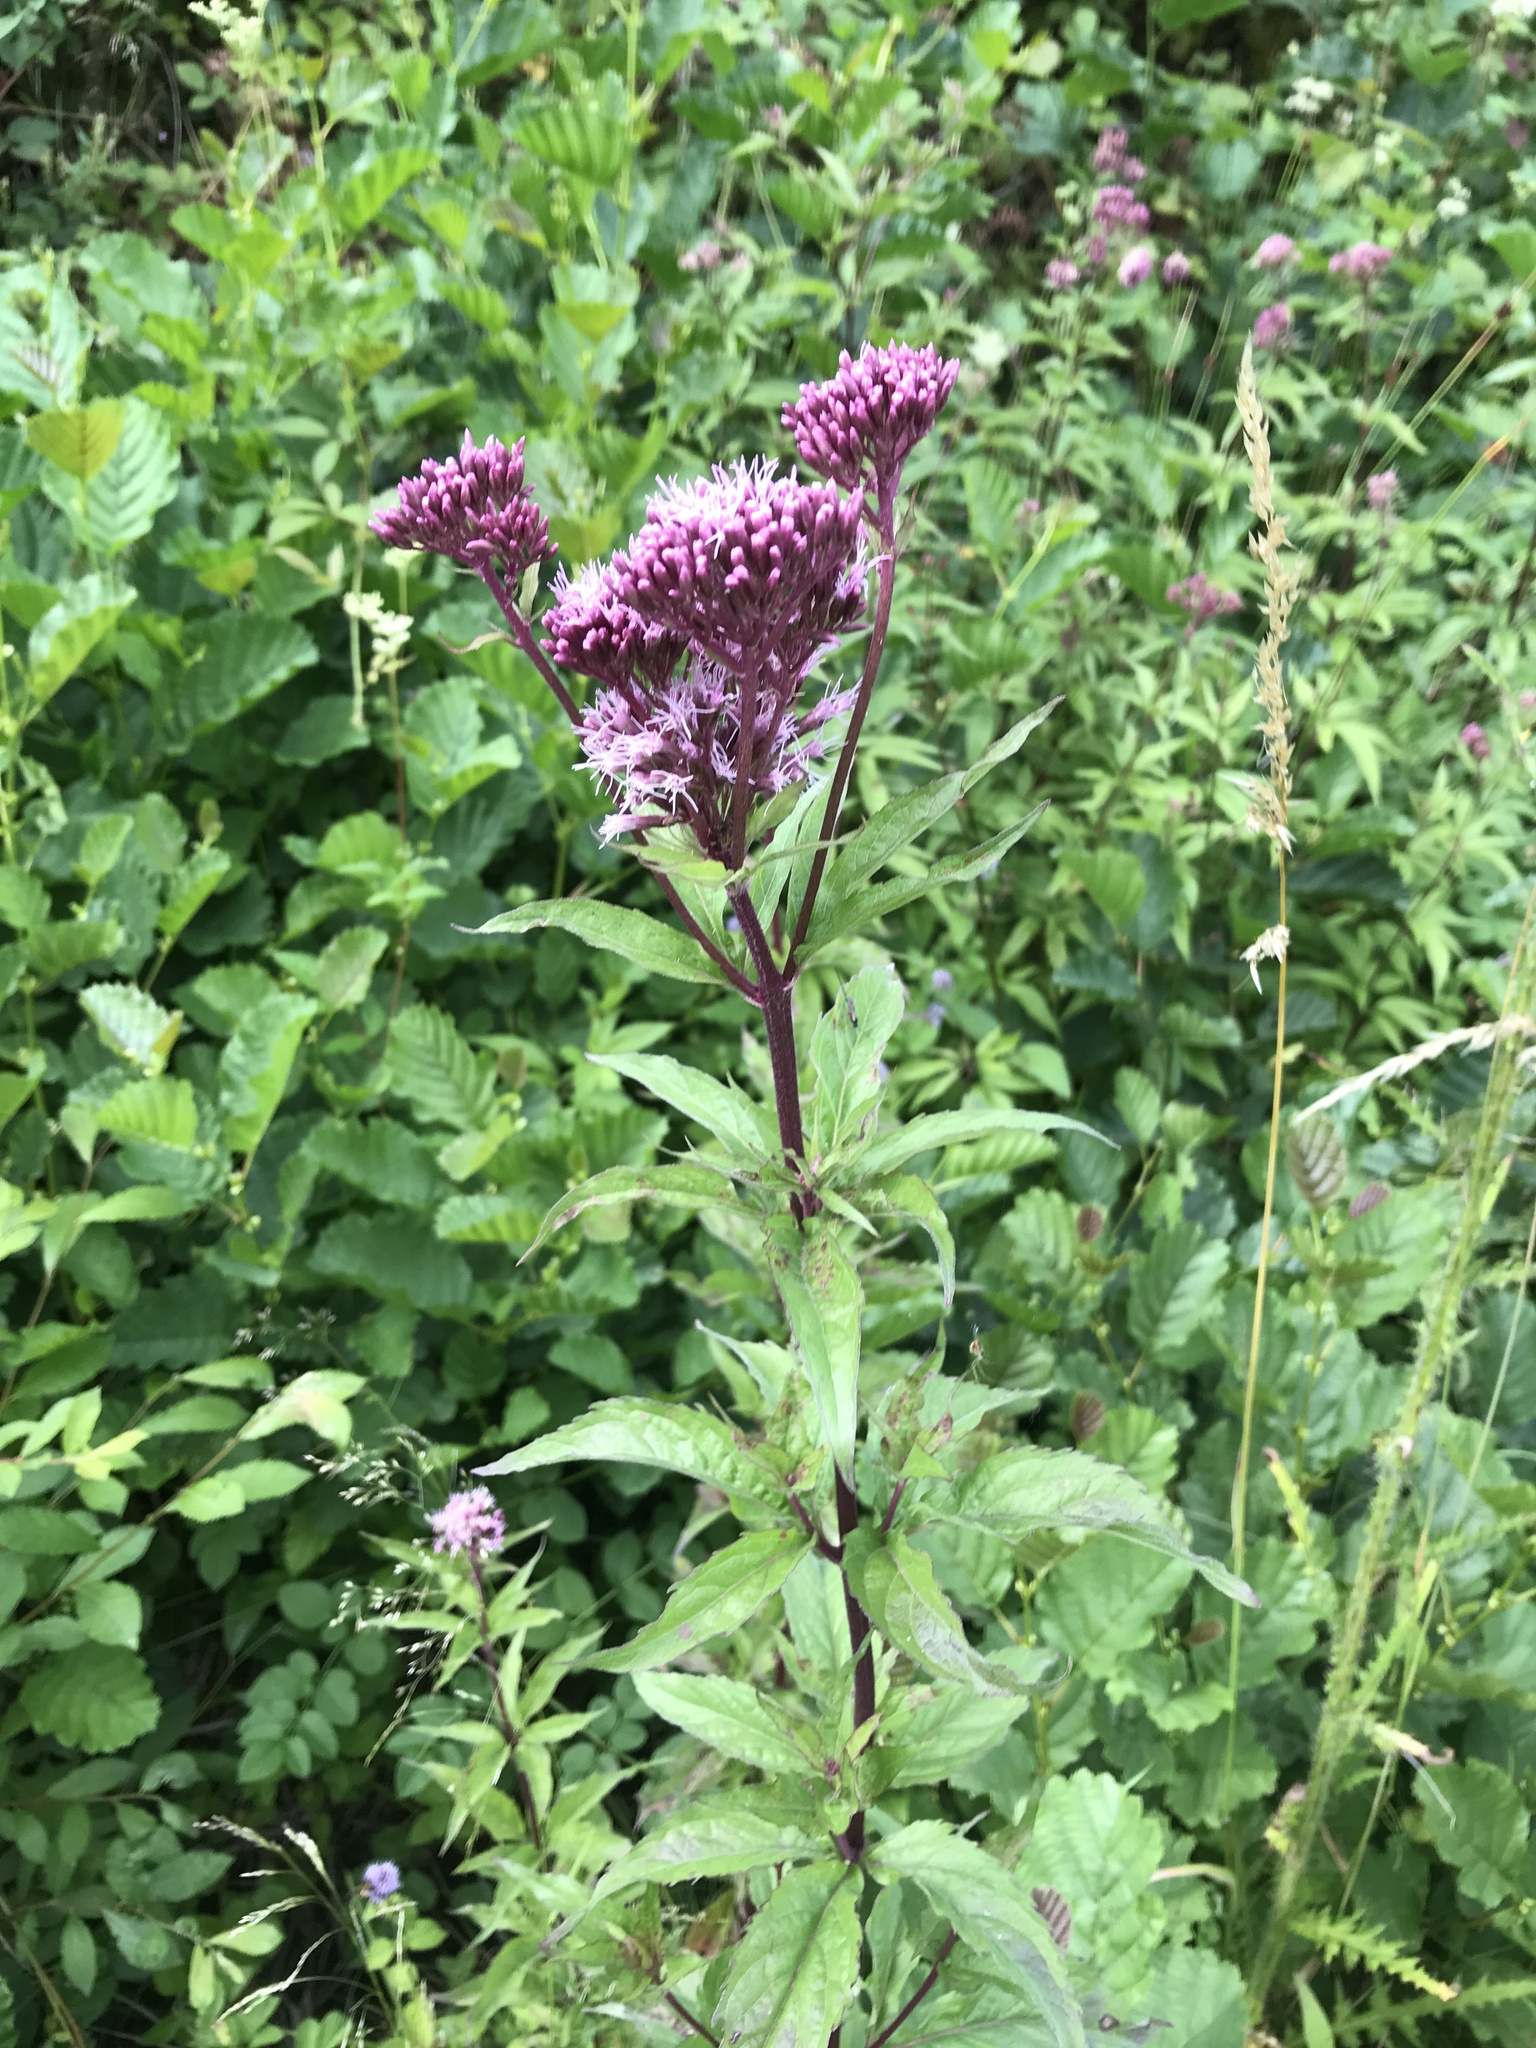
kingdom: Plantae
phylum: Tracheophyta
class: Magnoliopsida
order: Asterales
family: Asteraceae
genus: Eupatorium
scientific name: Eupatorium cannabinum
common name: Hemp-agrimony
